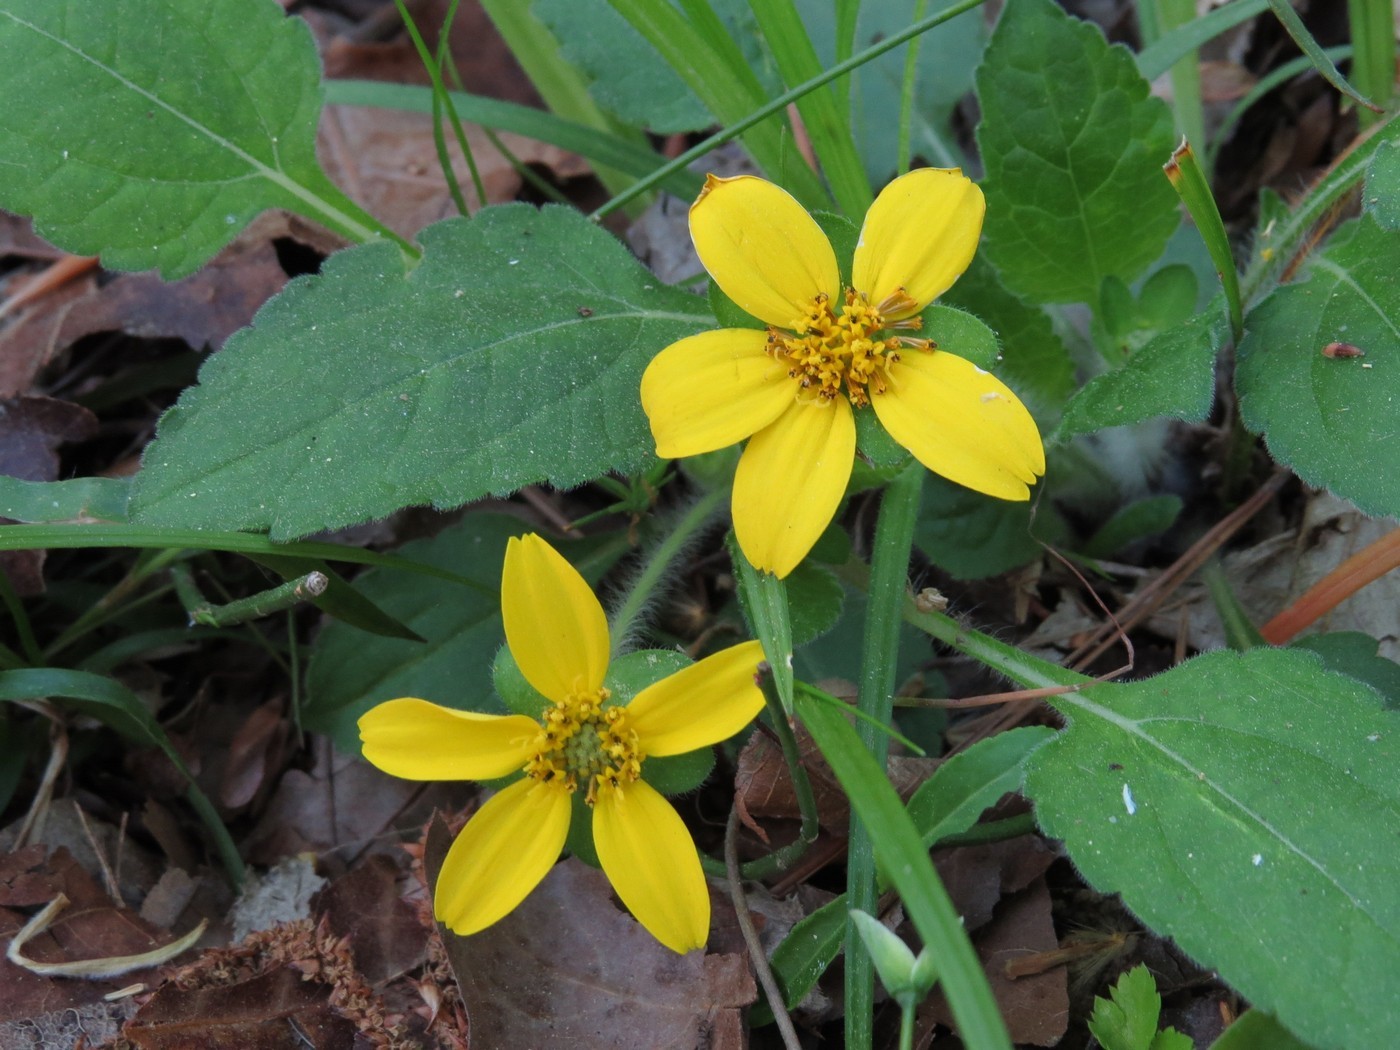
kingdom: Plantae
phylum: Tracheophyta
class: Magnoliopsida
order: Asterales
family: Asteraceae
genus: Chrysogonum
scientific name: Chrysogonum virginianum
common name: Golden-knee
